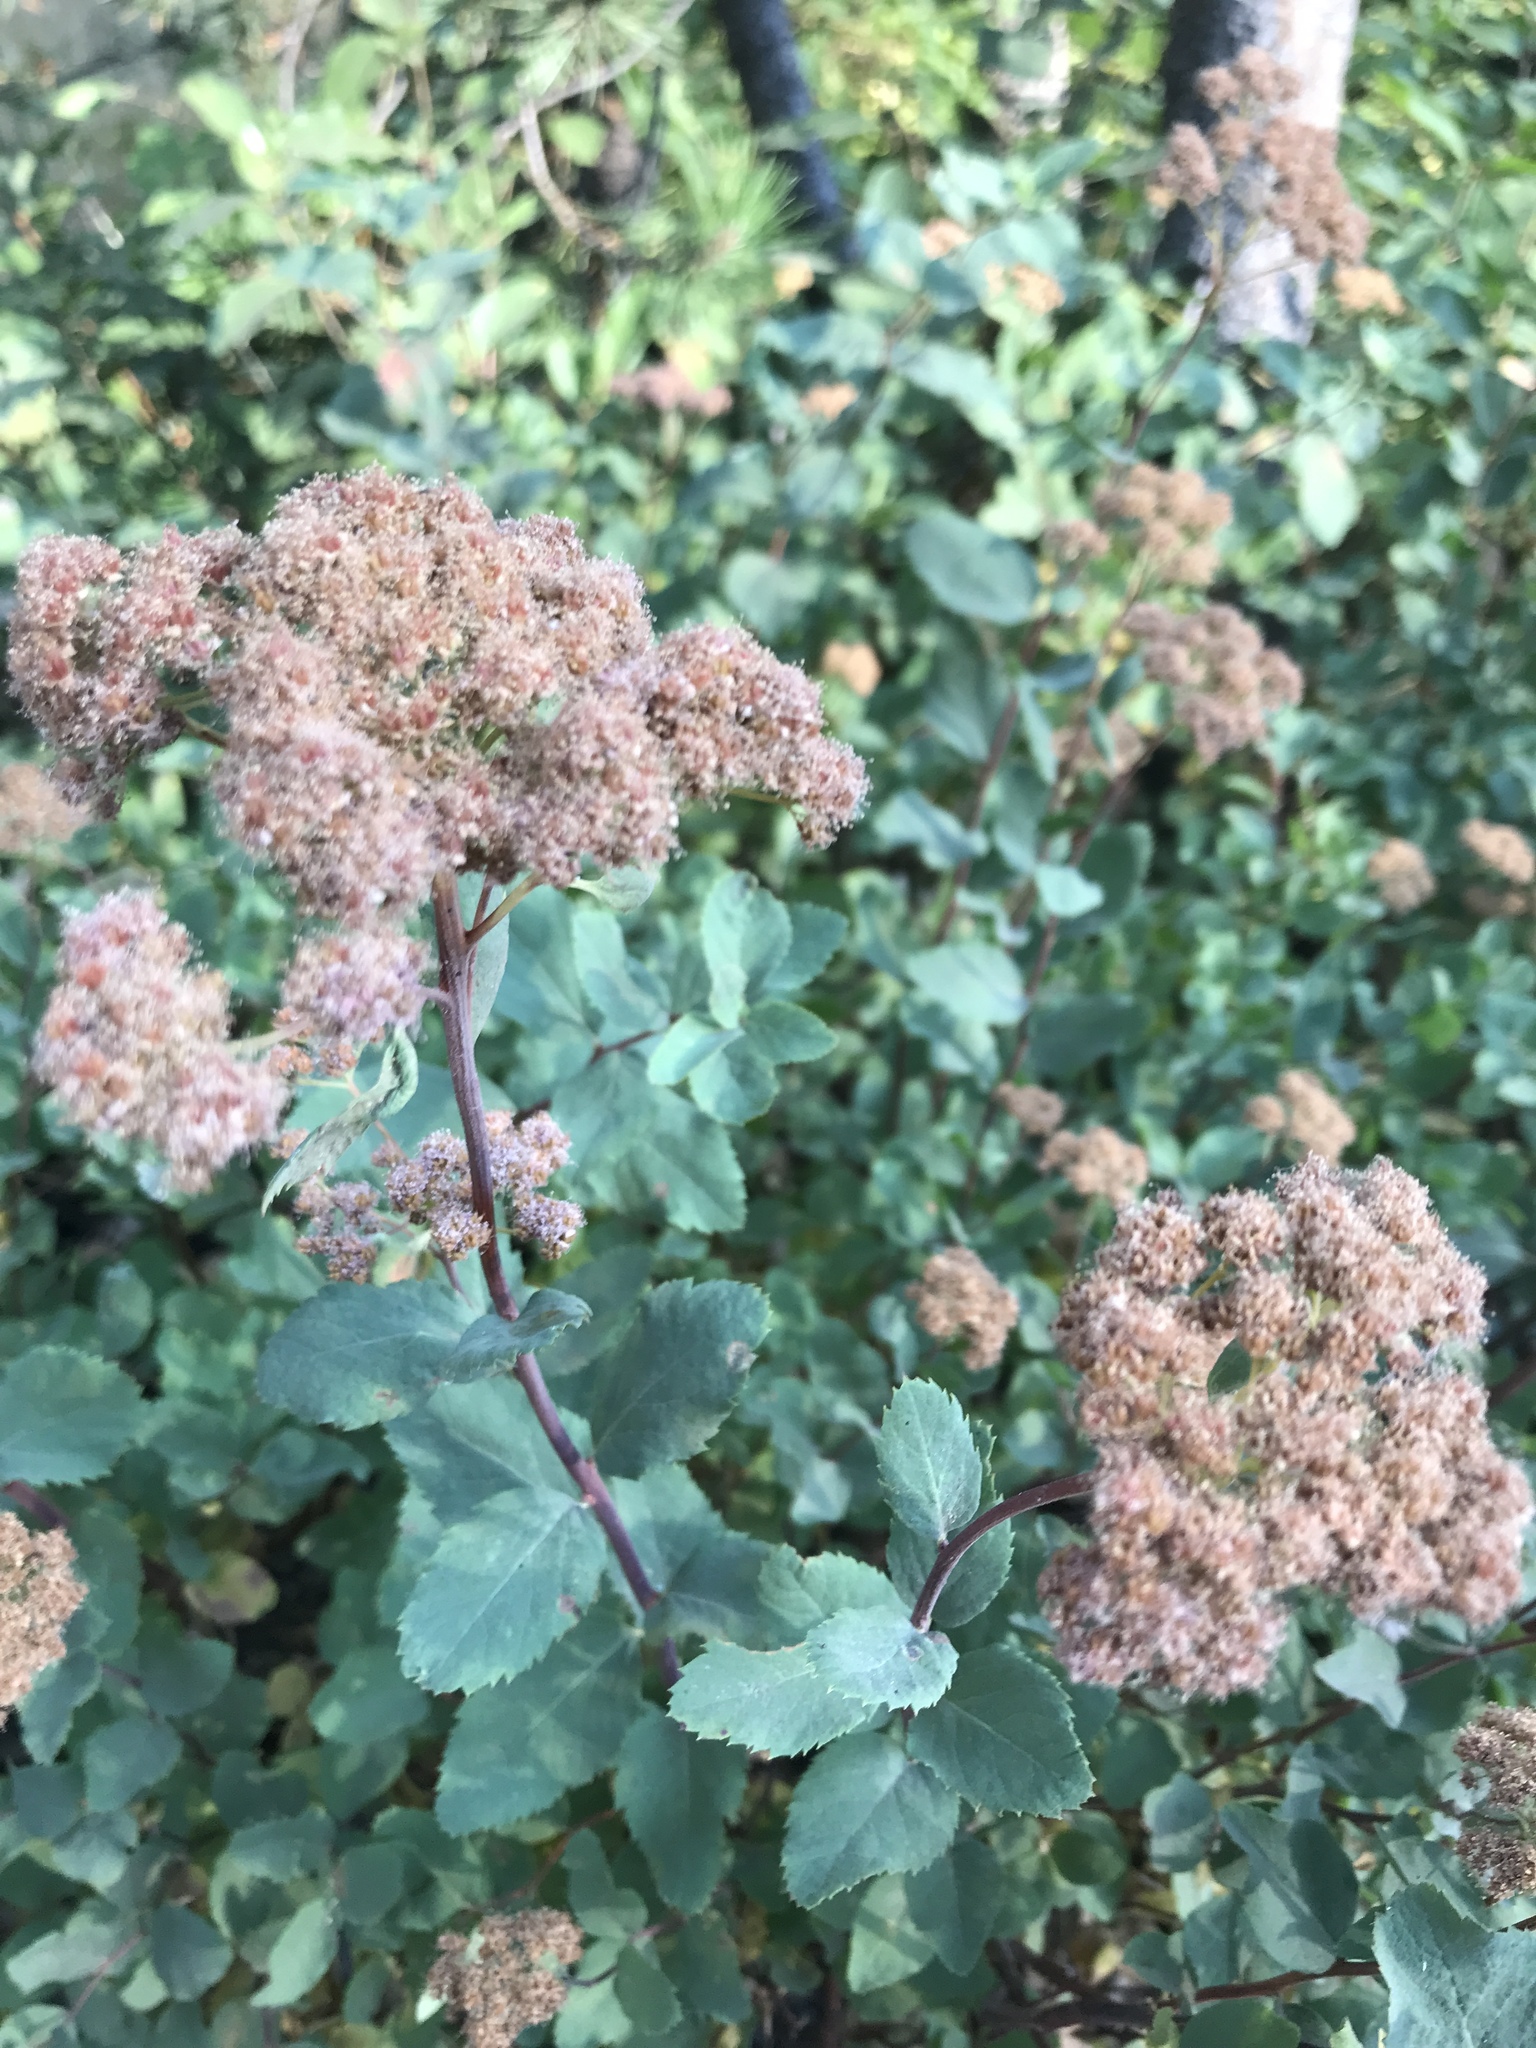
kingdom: Plantae
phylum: Tracheophyta
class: Magnoliopsida
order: Rosales
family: Rosaceae
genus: Spiraea
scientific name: Spiraea splendens
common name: Subalpine meadowsweet
